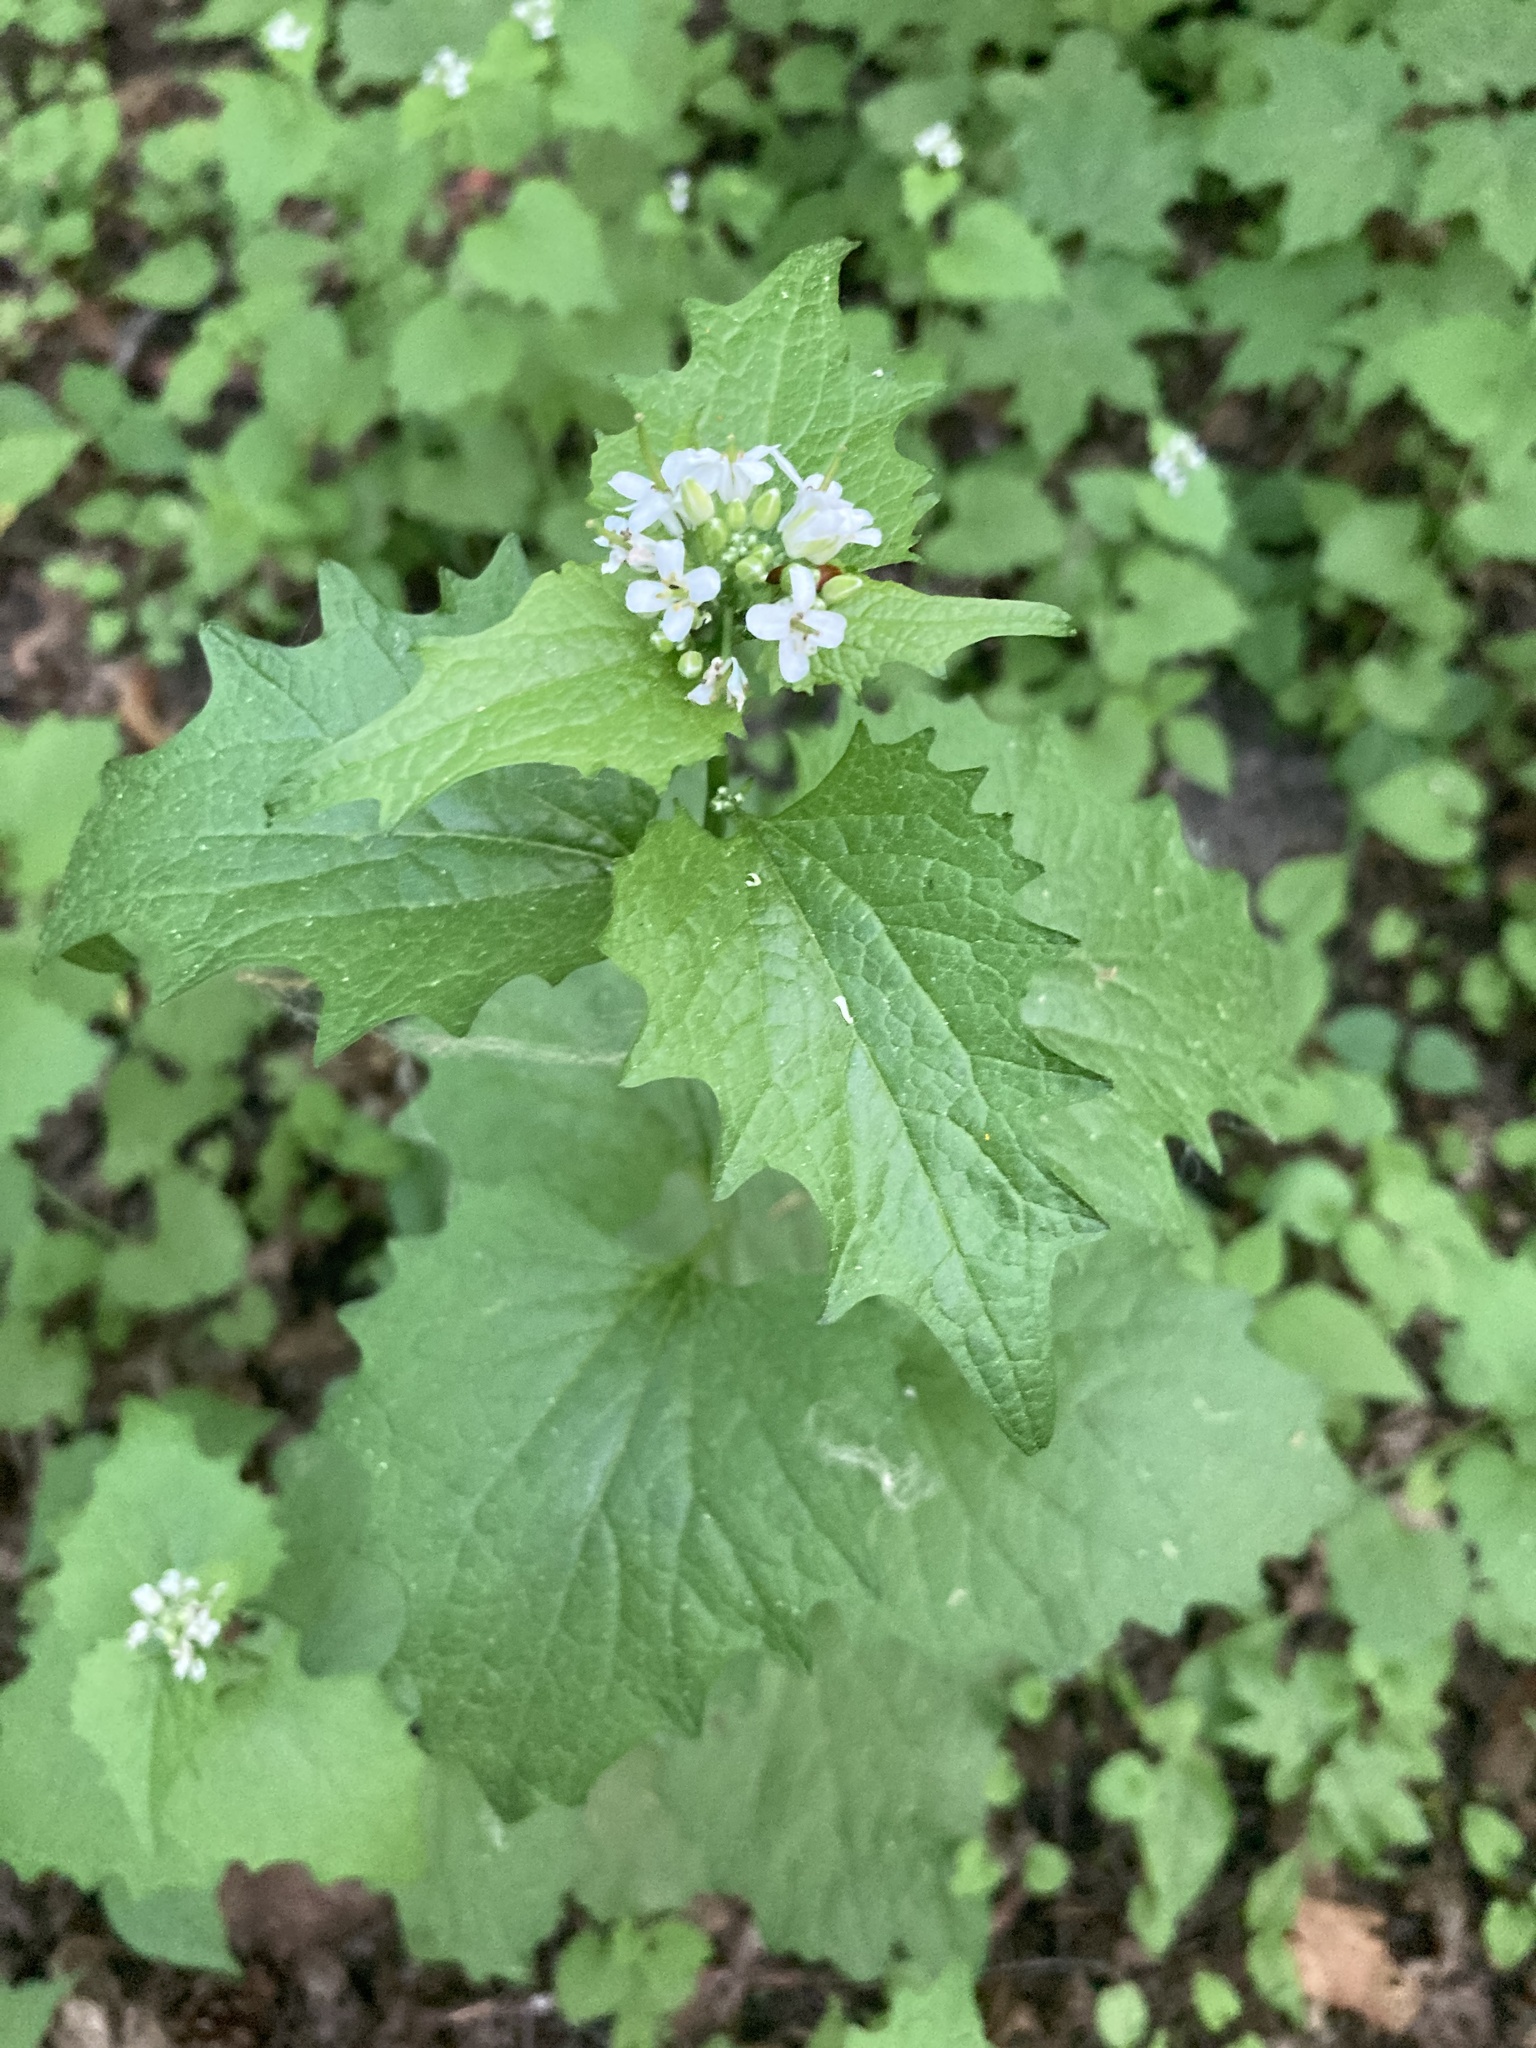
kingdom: Plantae
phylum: Tracheophyta
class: Magnoliopsida
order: Brassicales
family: Brassicaceae
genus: Alliaria
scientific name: Alliaria petiolata
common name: Garlic mustard
